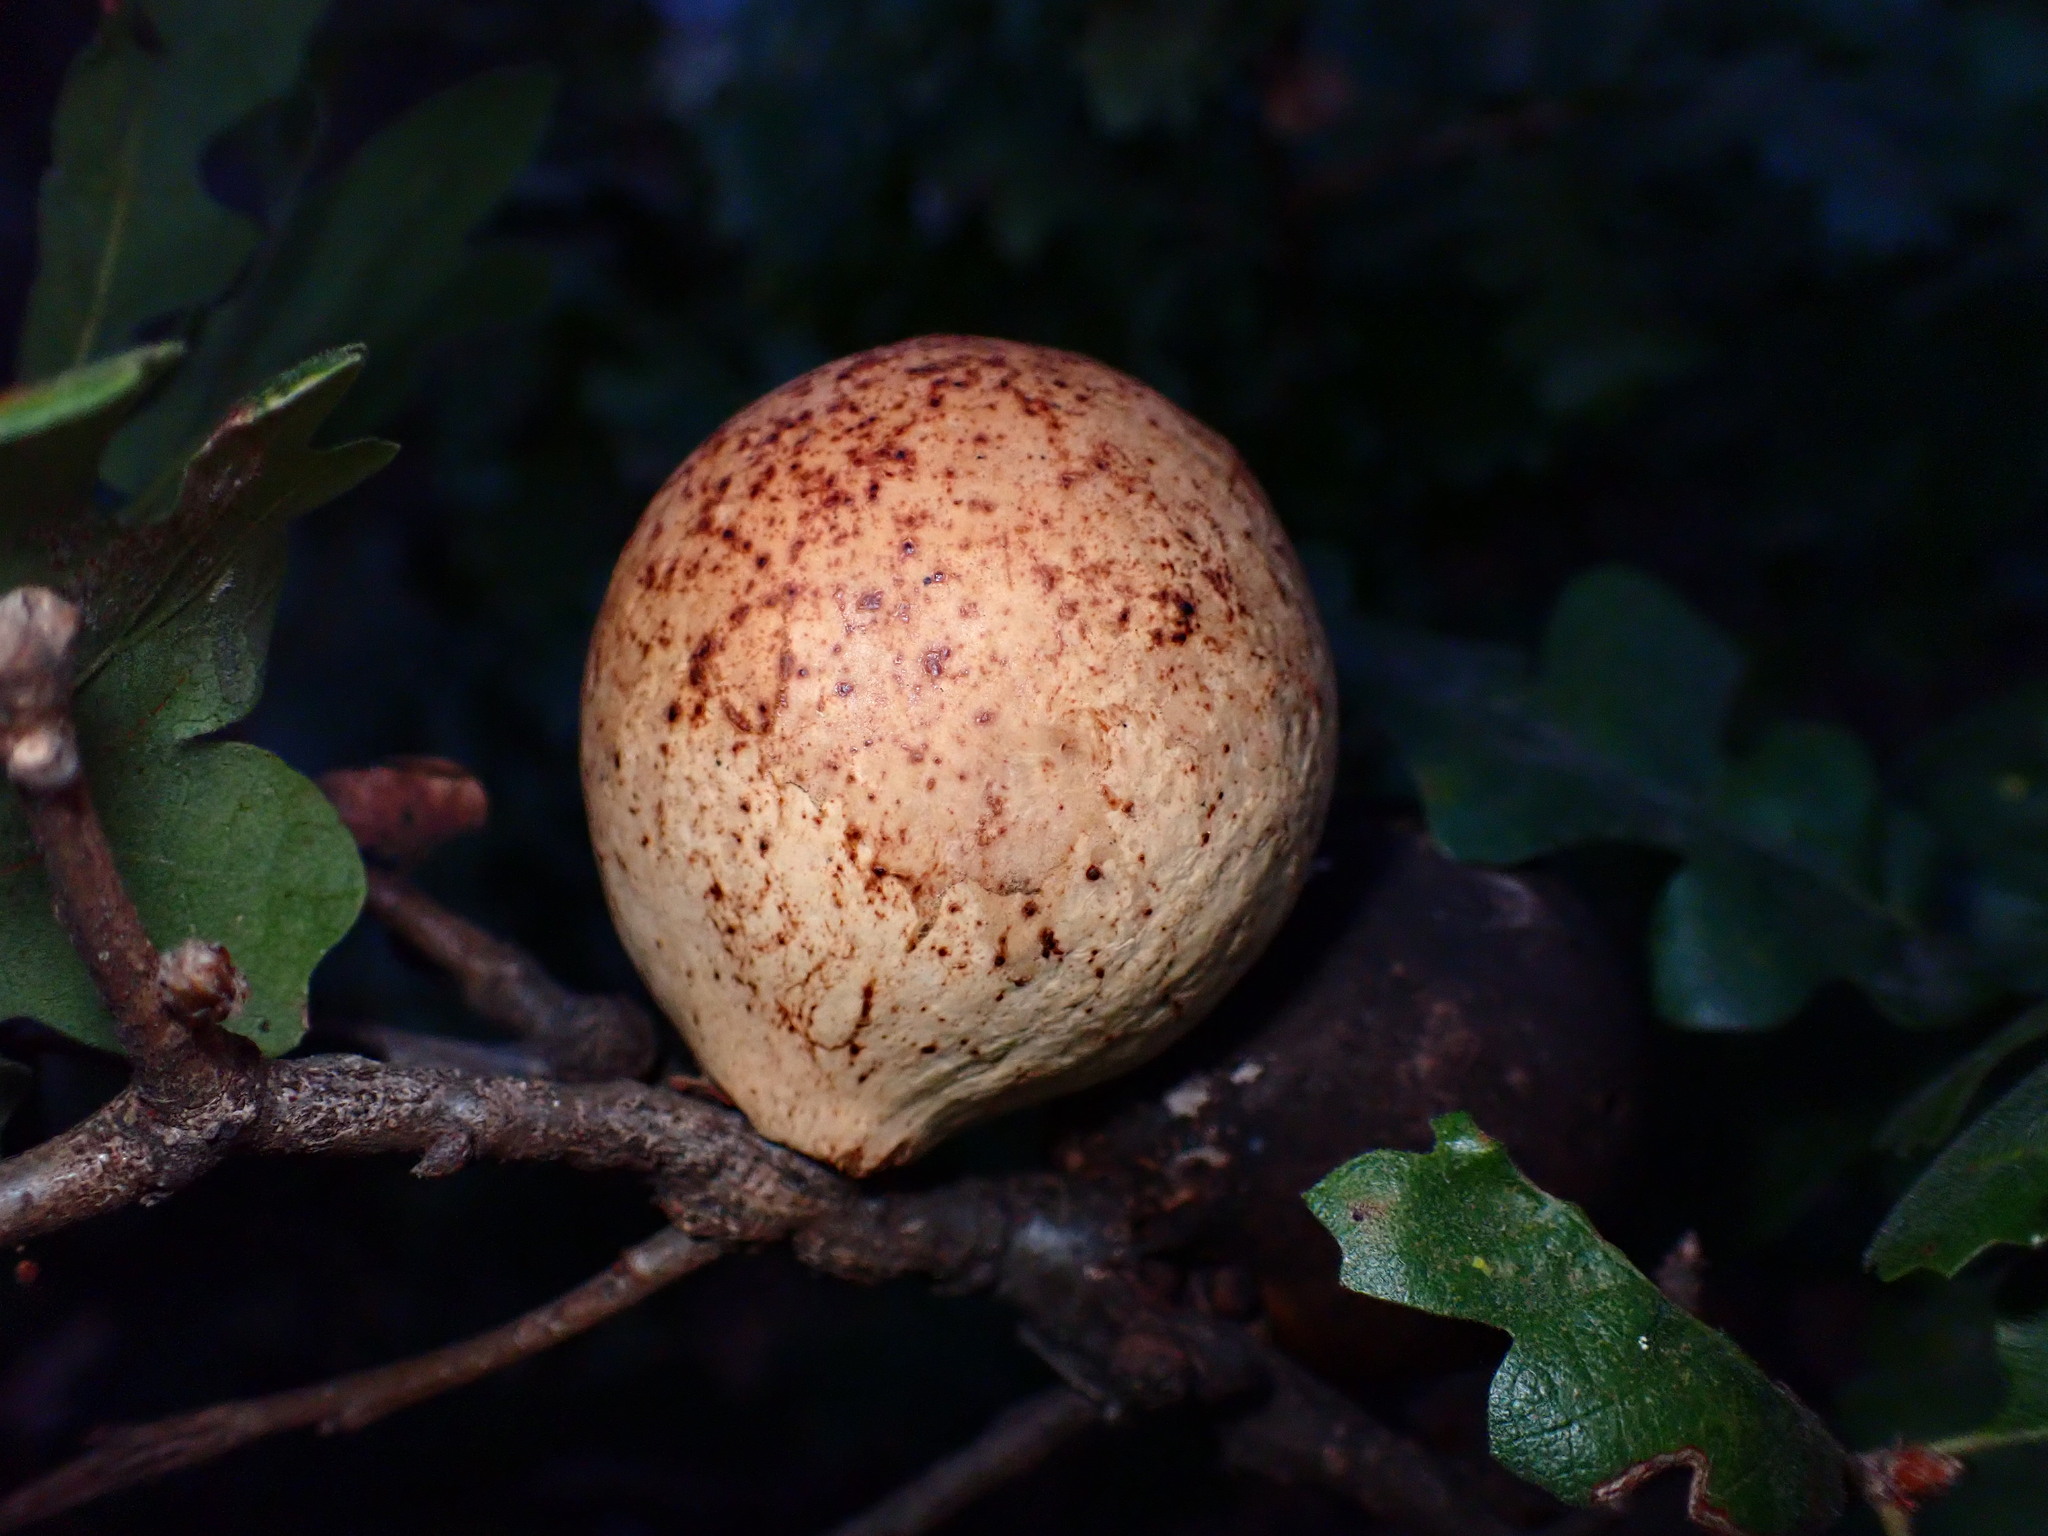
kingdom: Animalia
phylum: Arthropoda
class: Insecta
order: Hymenoptera
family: Cynipidae
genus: Andricus
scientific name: Andricus quercuscalifornicus
